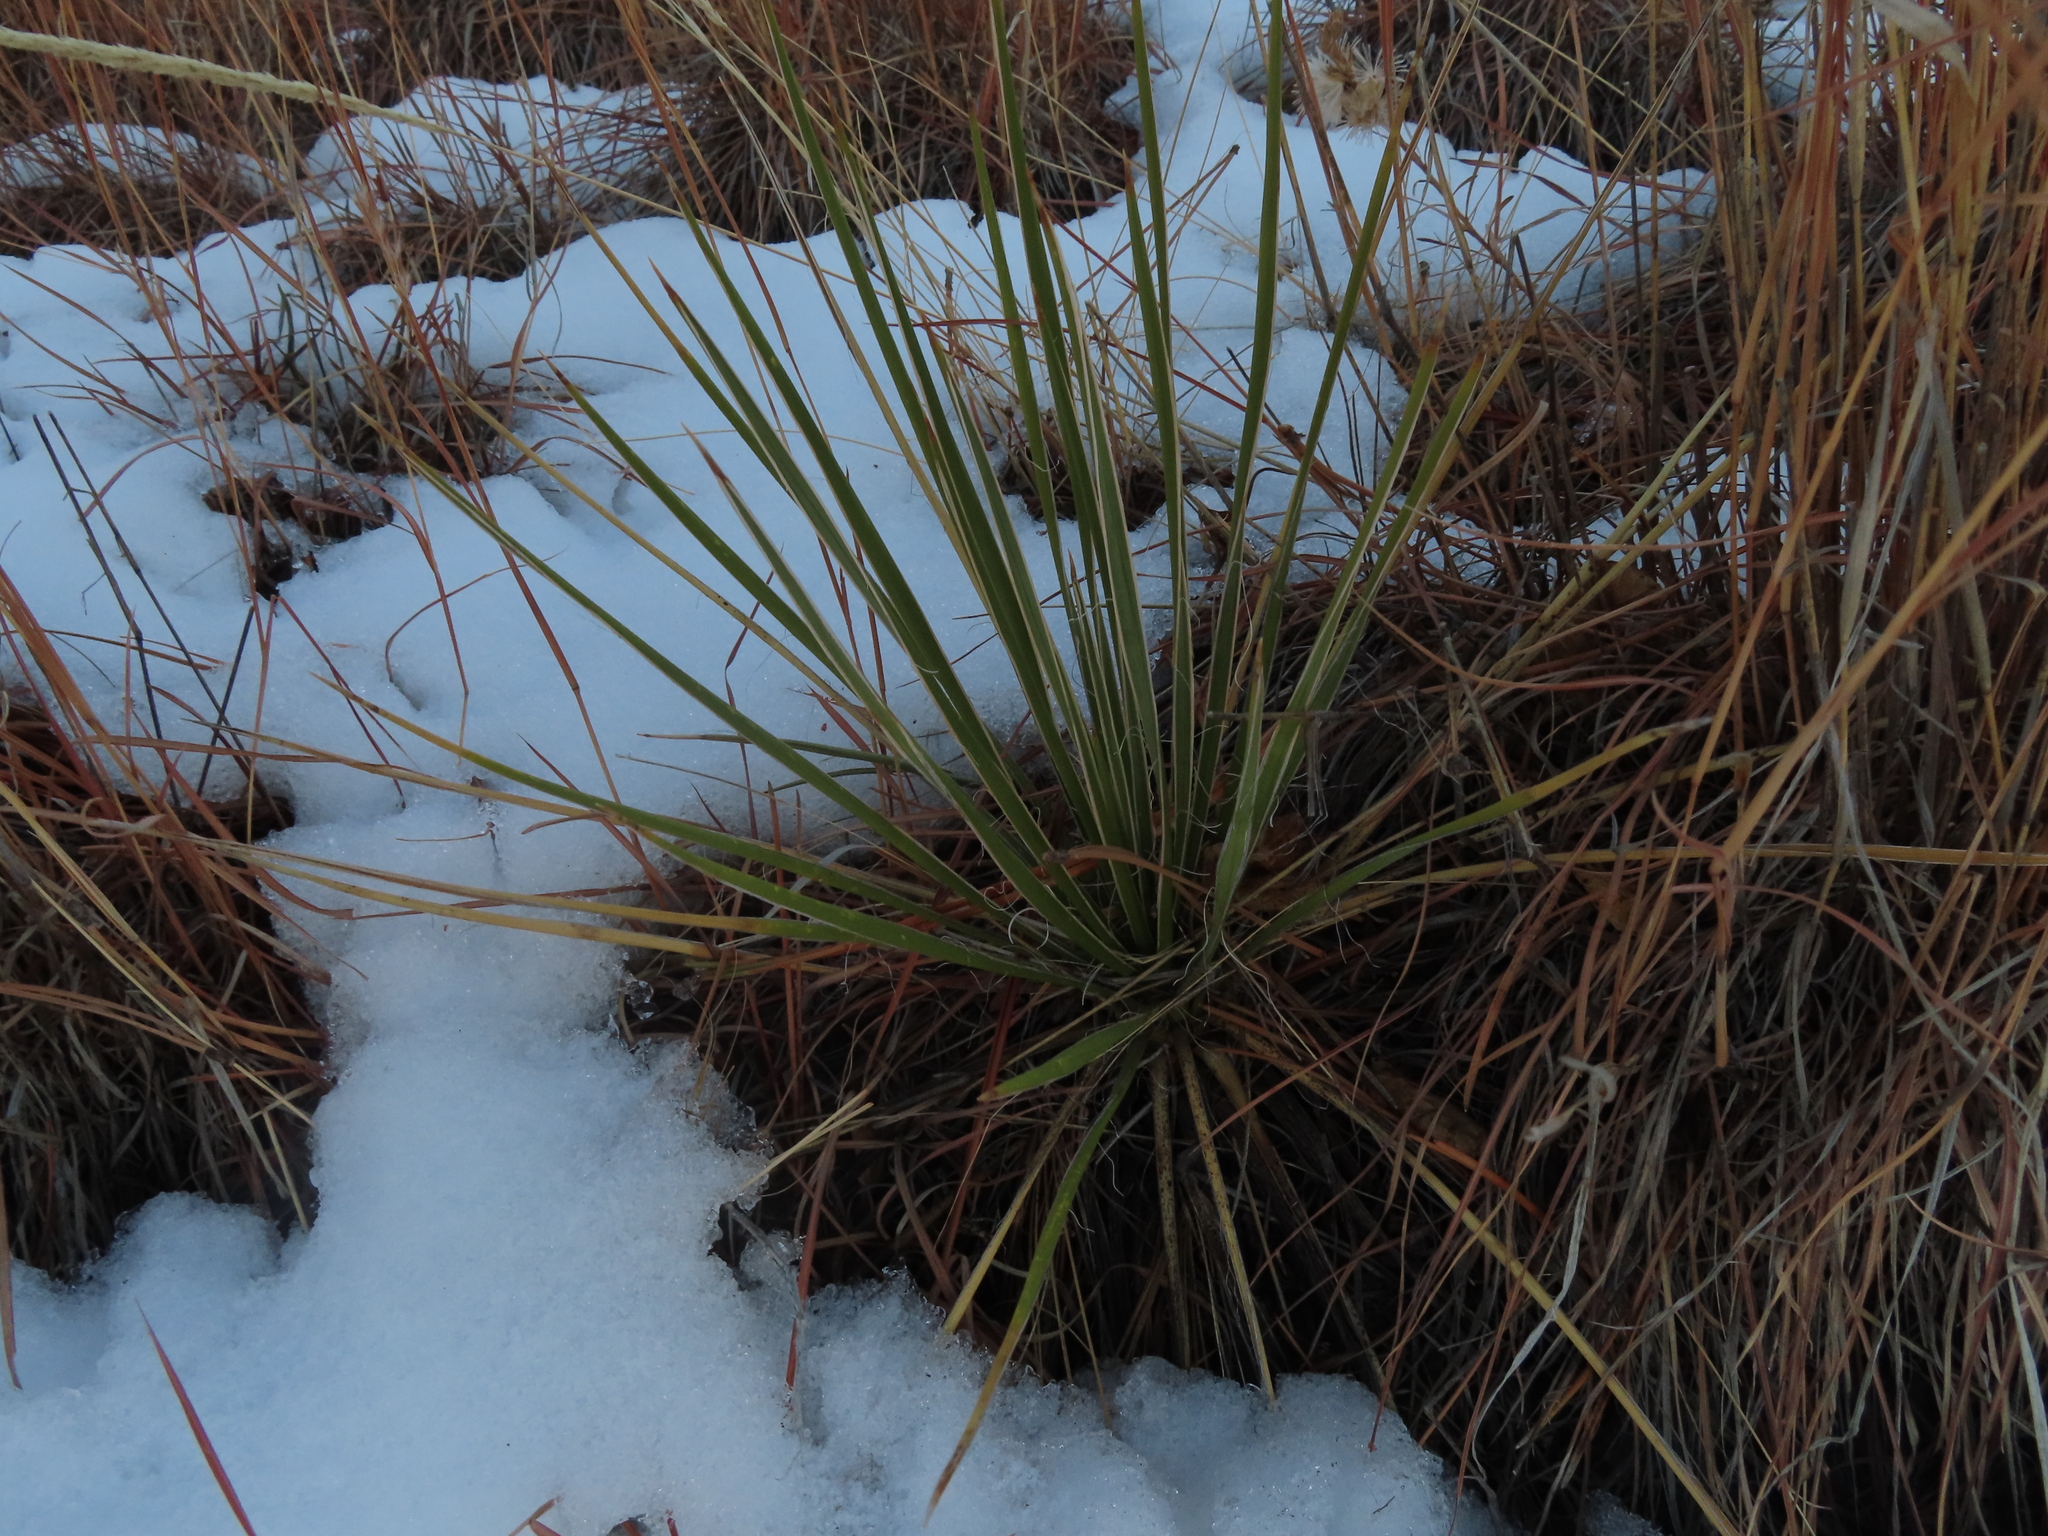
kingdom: Plantae
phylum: Tracheophyta
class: Liliopsida
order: Asparagales
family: Asparagaceae
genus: Yucca
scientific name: Yucca glauca
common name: Great plains yucca
